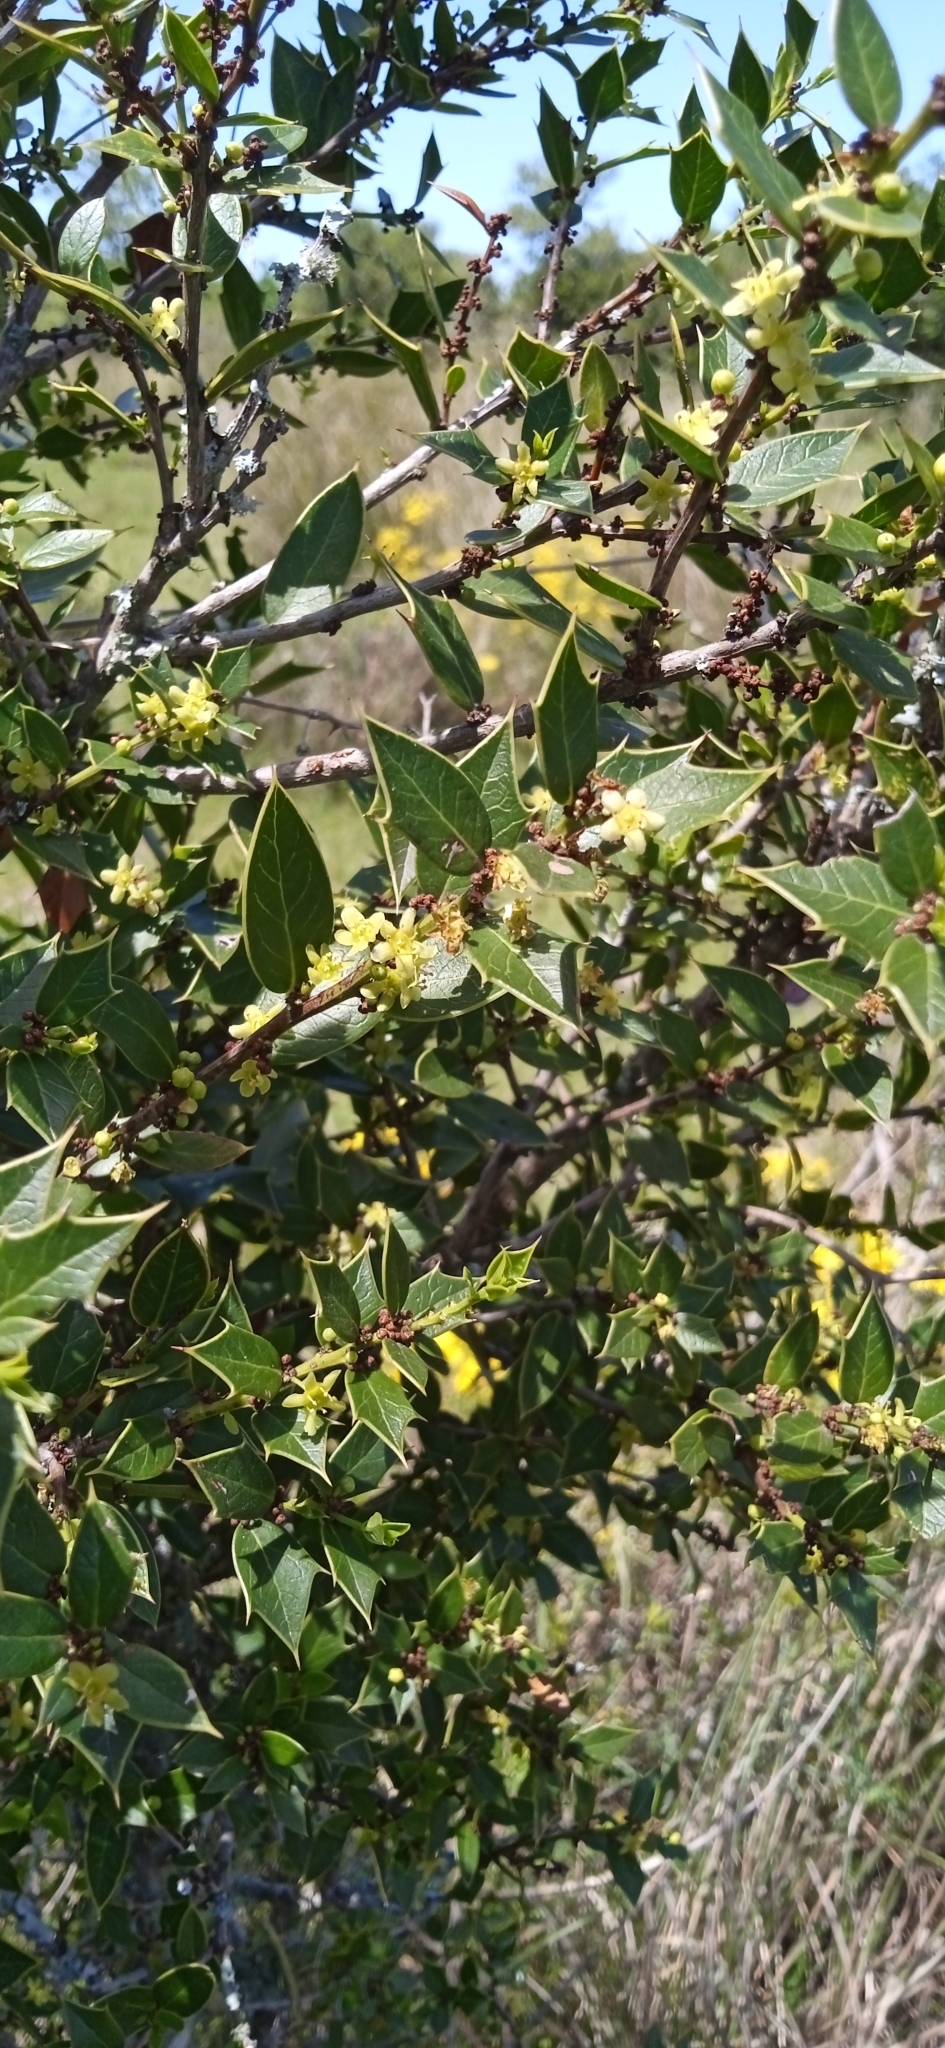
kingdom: Plantae
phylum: Tracheophyta
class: Magnoliopsida
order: Celastrales
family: Celastraceae
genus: Monteverdia
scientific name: Monteverdia
